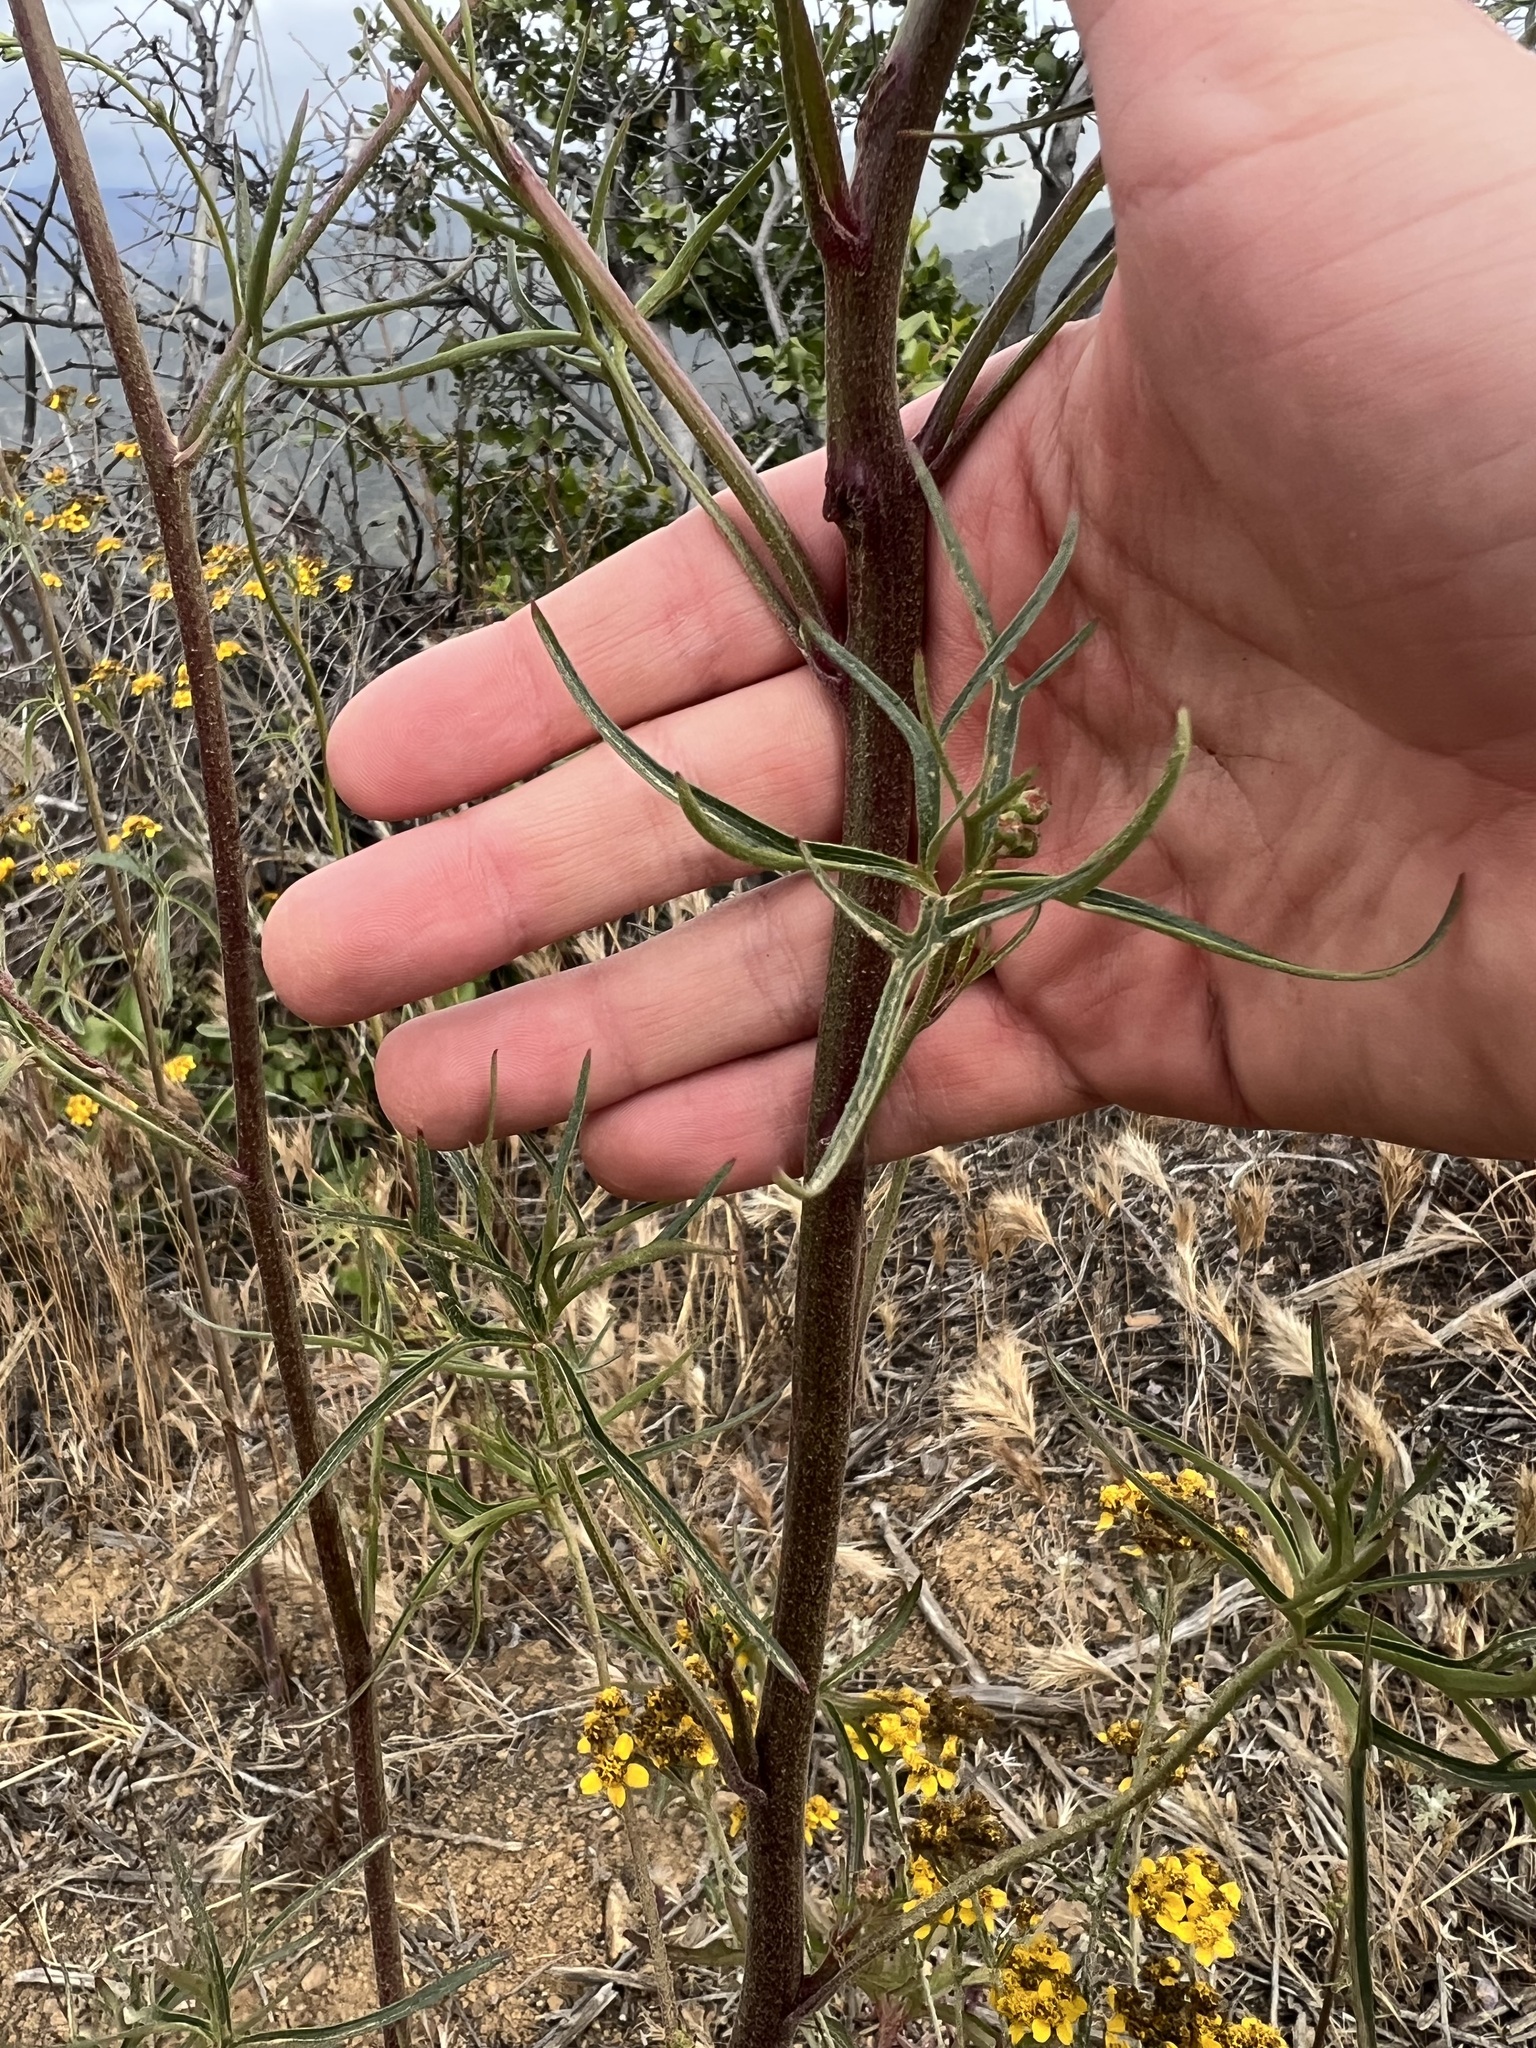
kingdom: Plantae
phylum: Tracheophyta
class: Magnoliopsida
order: Ranunculales
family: Ranunculaceae
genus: Delphinium
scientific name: Delphinium cardinale
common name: Scarlet larkspur
